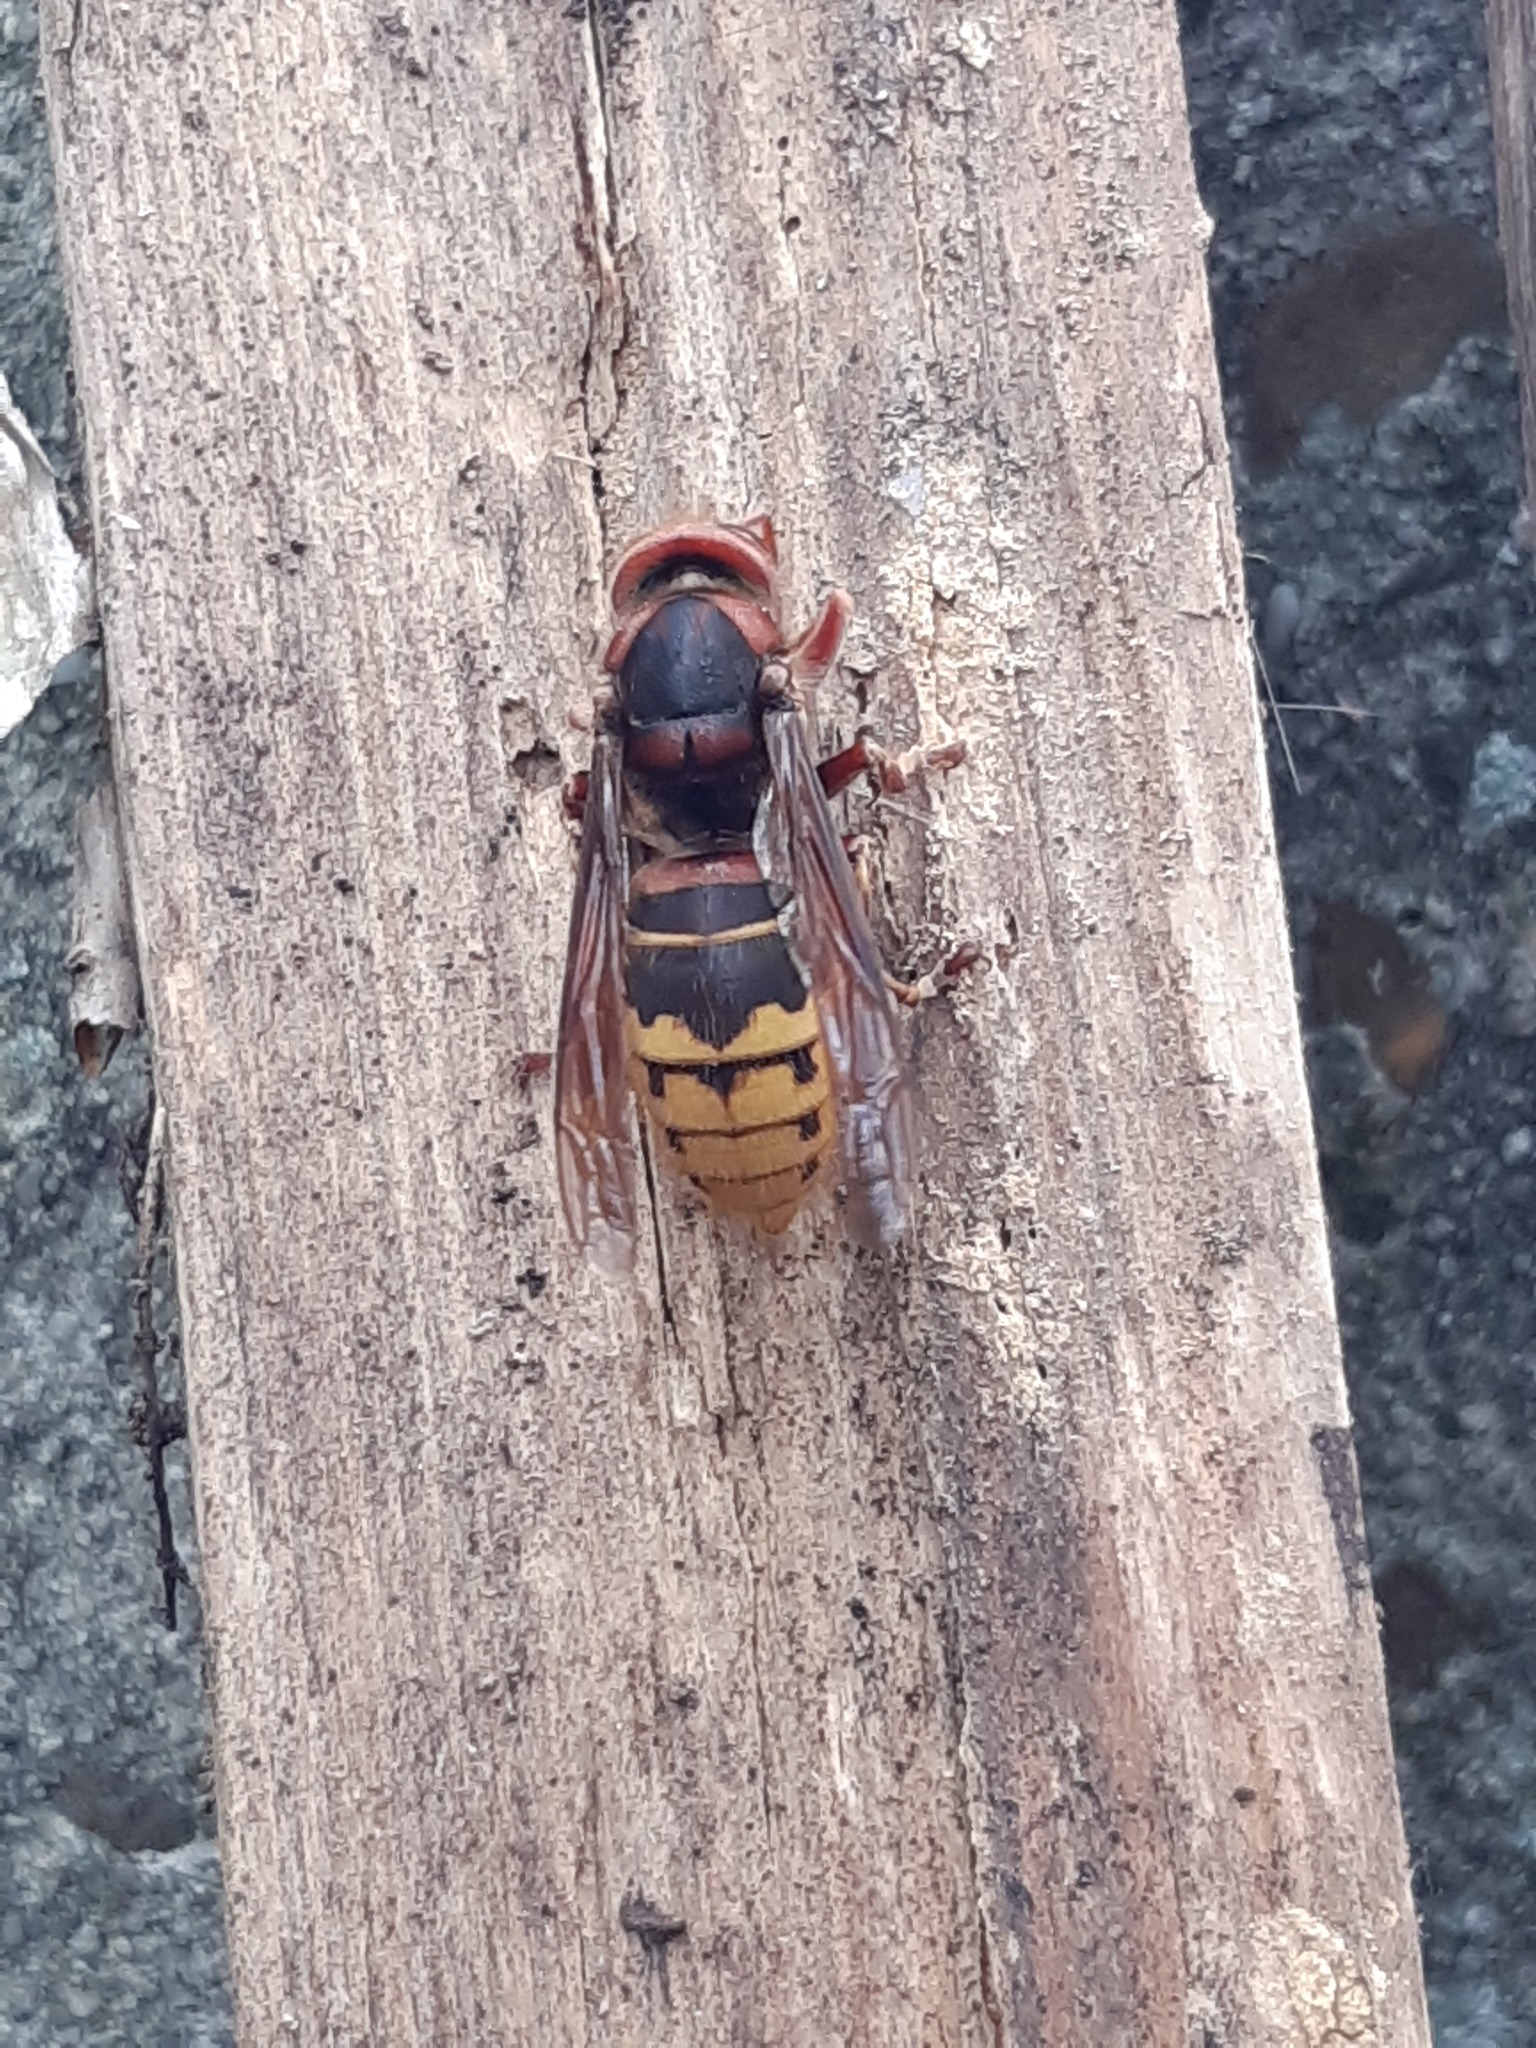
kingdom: Animalia
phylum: Arthropoda
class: Insecta
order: Hymenoptera
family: Vespidae
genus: Vespa
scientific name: Vespa crabro
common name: Hornet
